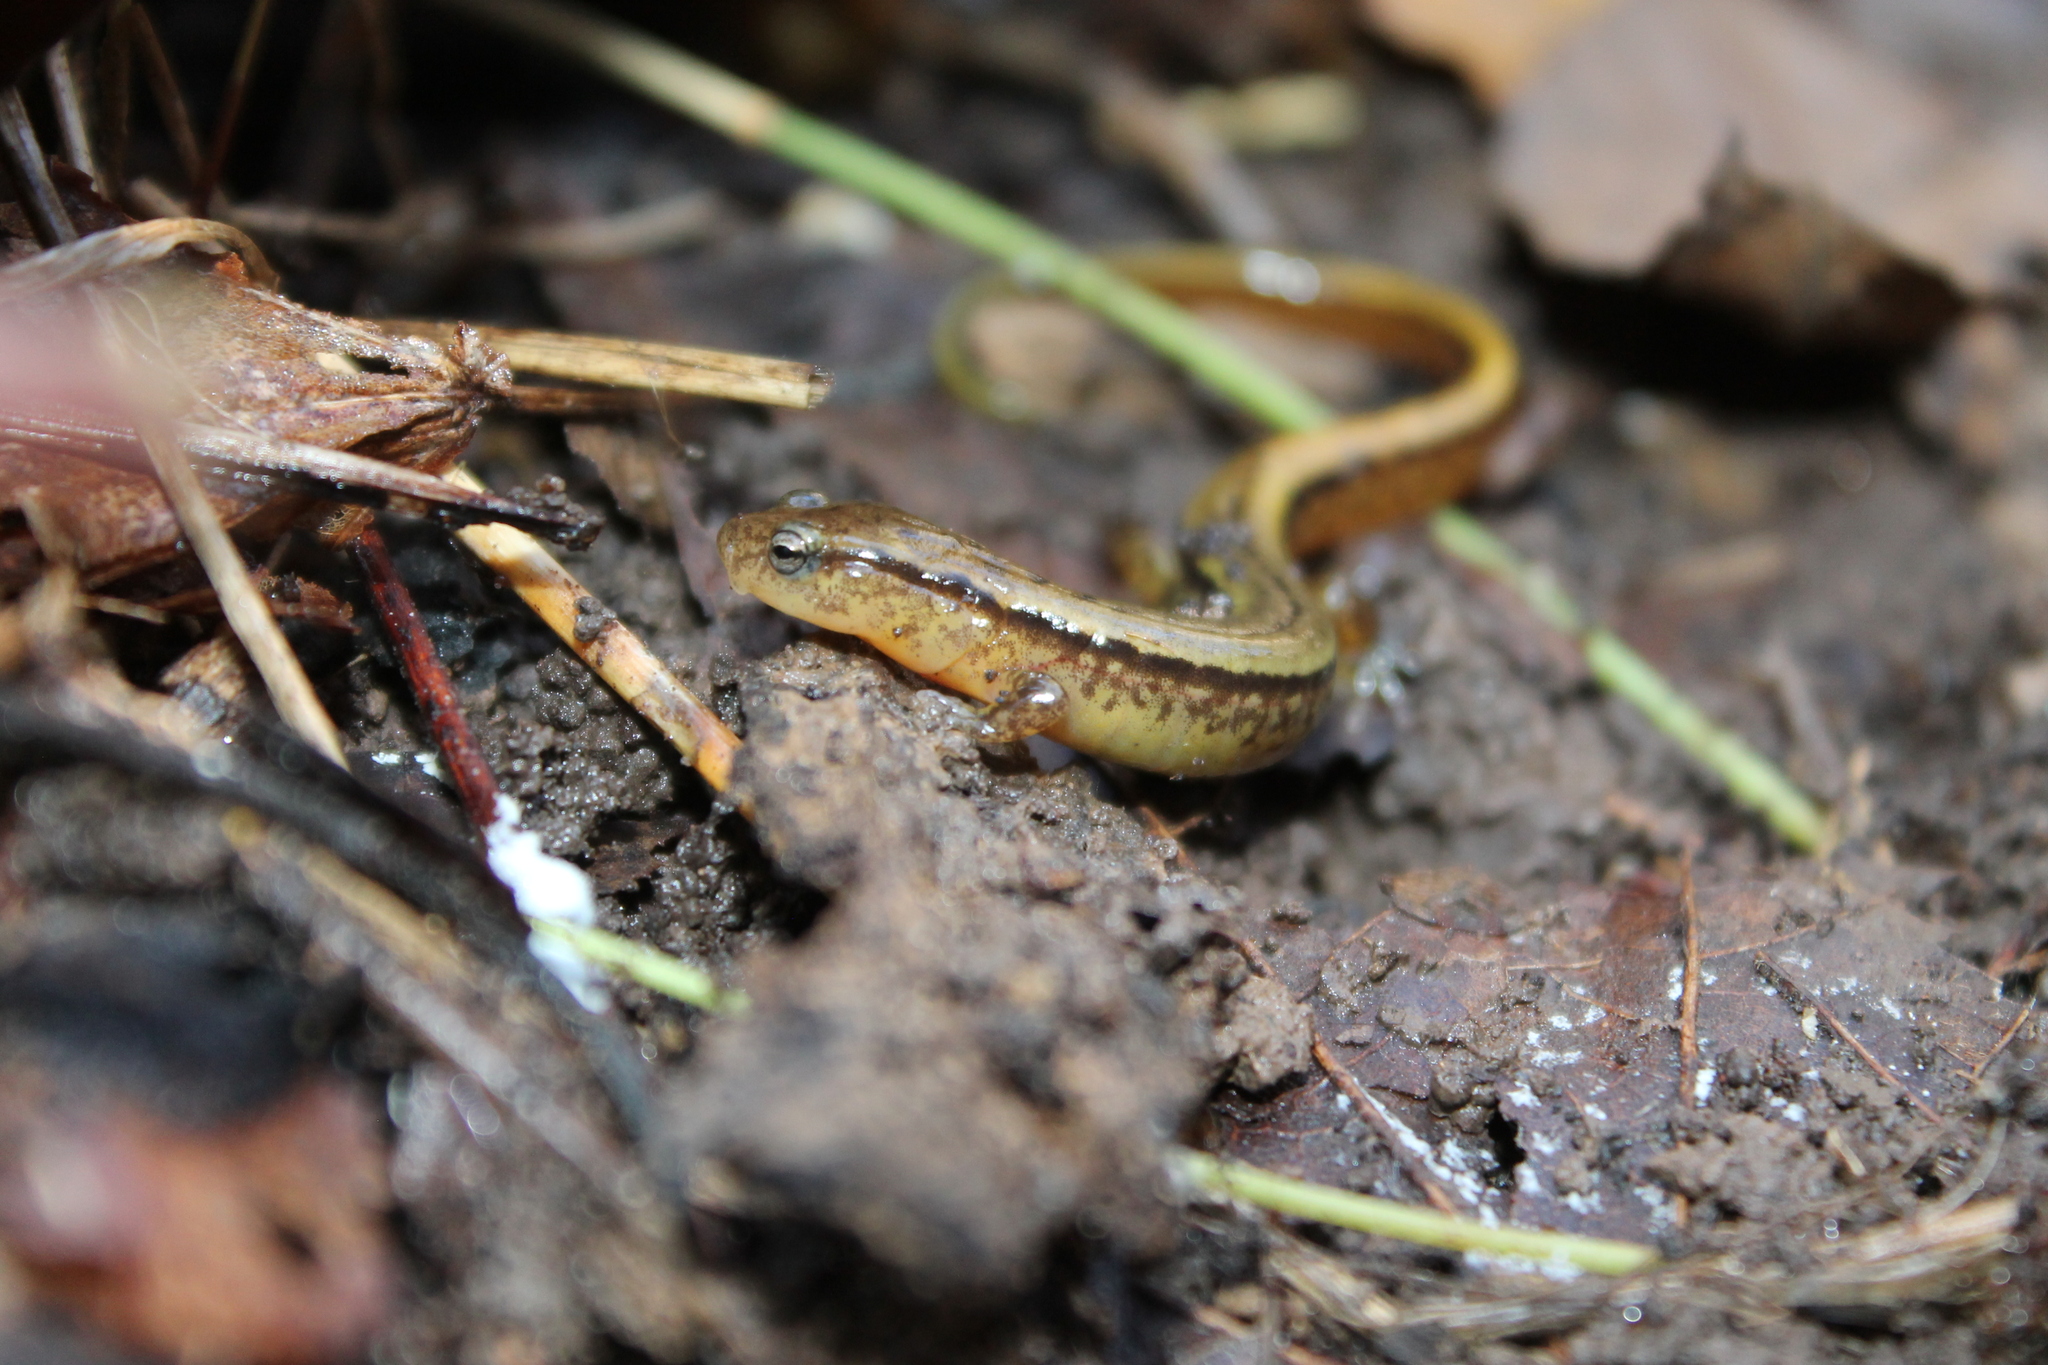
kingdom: Animalia
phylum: Chordata
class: Amphibia
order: Caudata
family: Plethodontidae
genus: Eurycea
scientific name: Eurycea cirrigera
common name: Southern two-lined salamander
